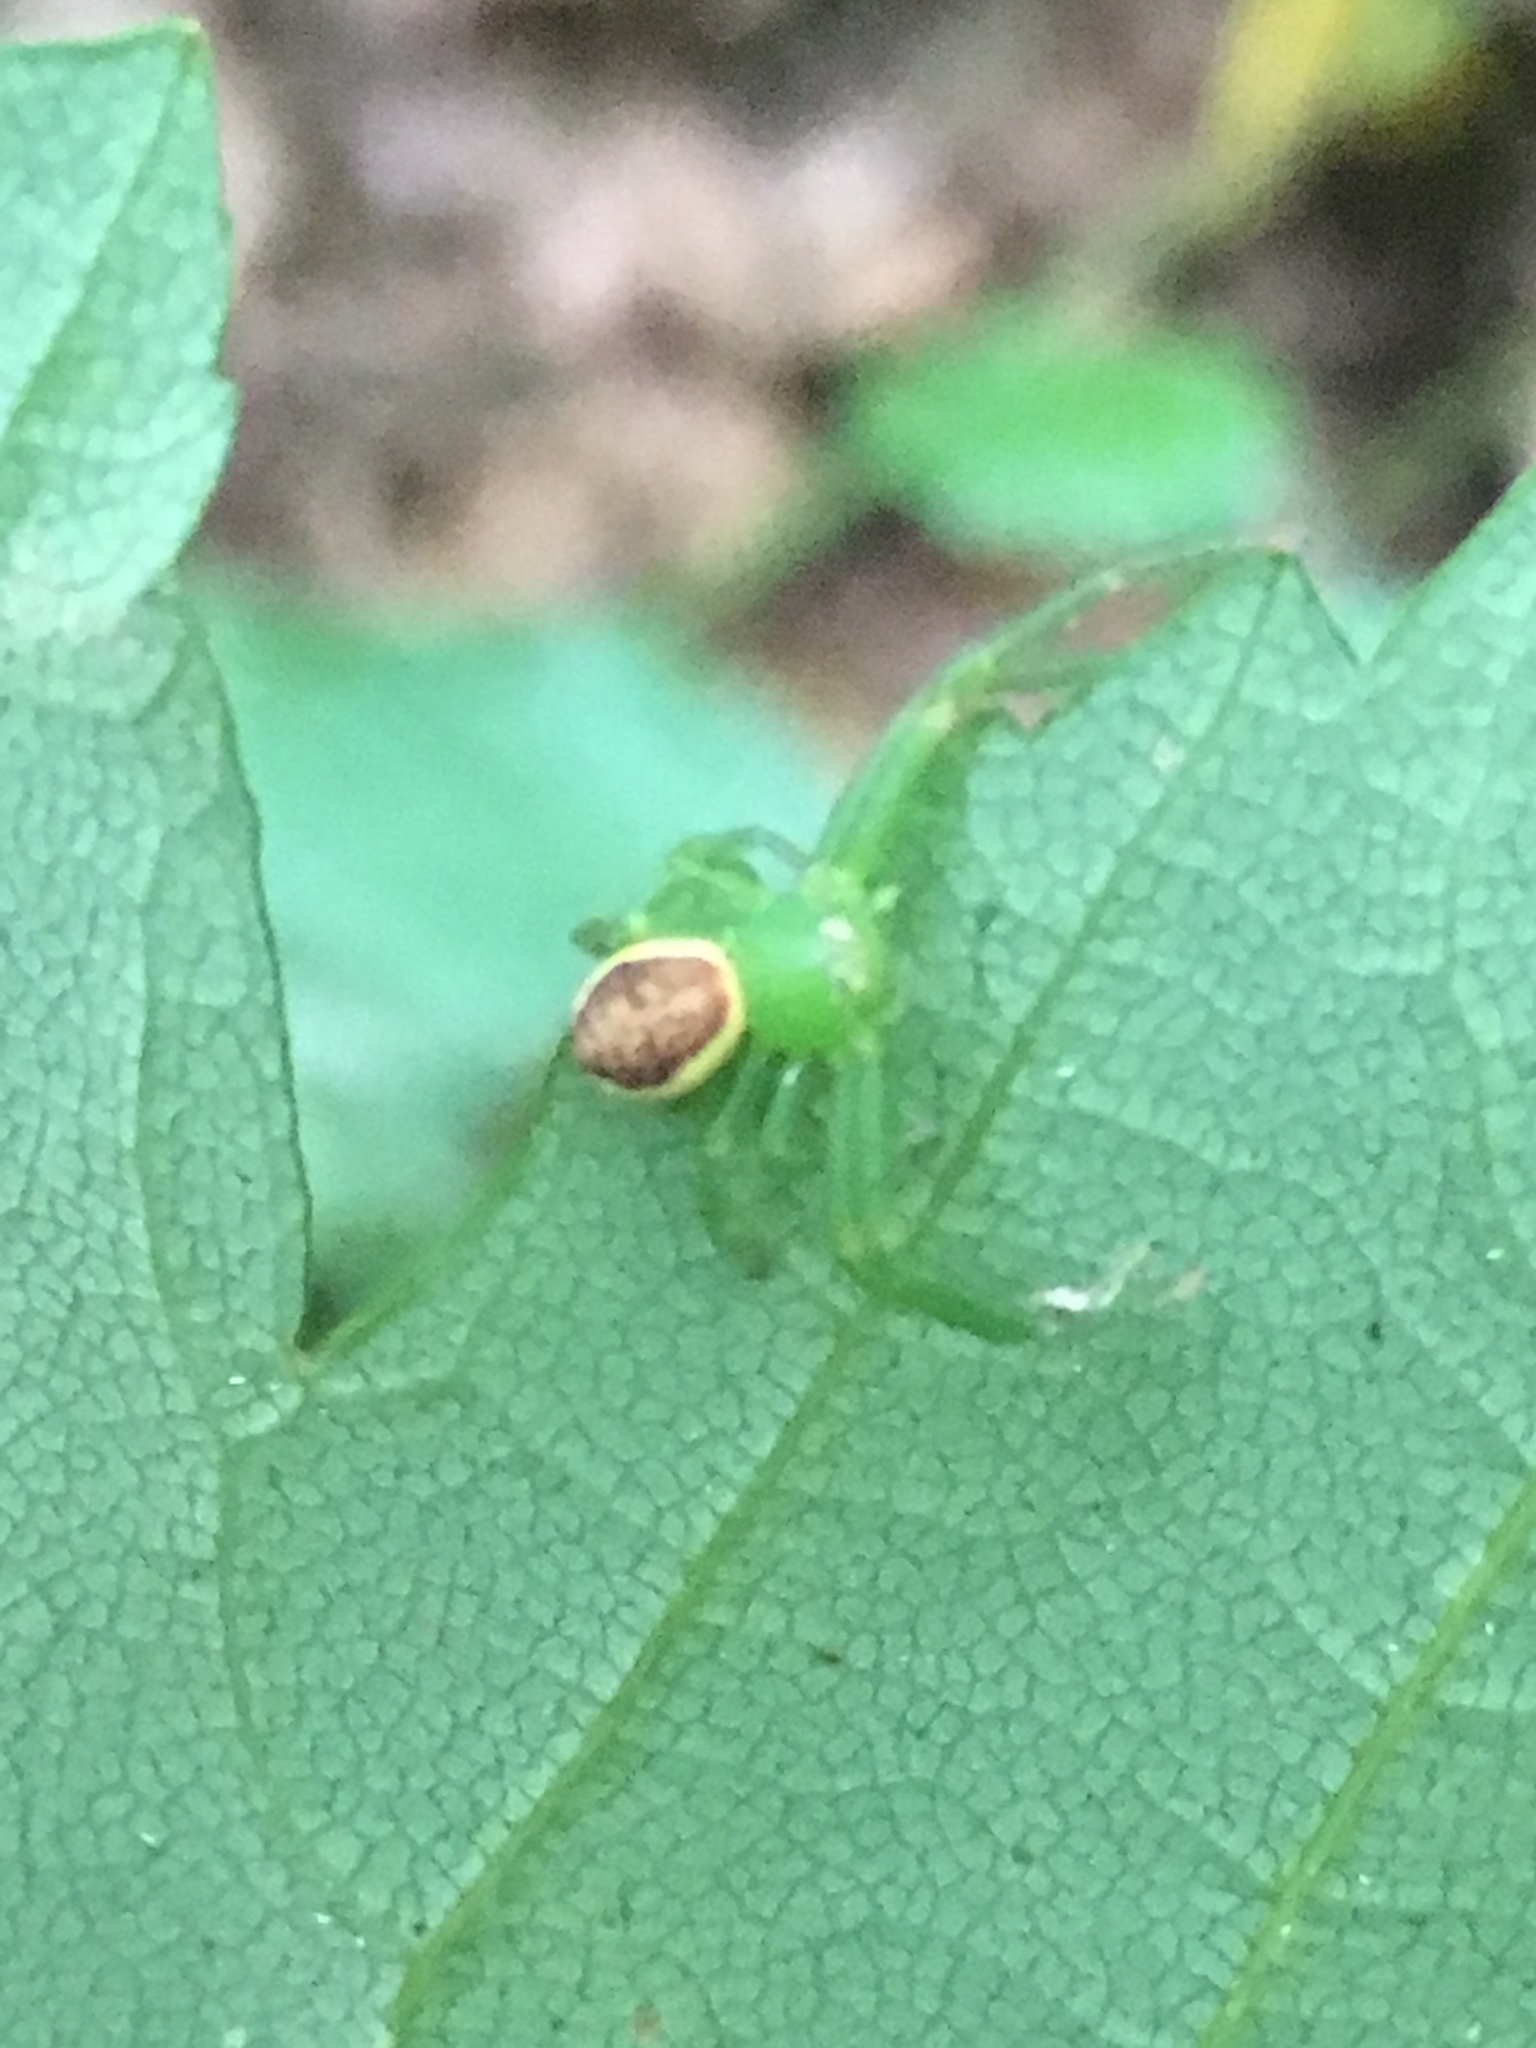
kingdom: Animalia
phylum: Arthropoda
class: Arachnida
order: Araneae
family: Thomisidae
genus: Diaea
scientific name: Diaea dorsata
